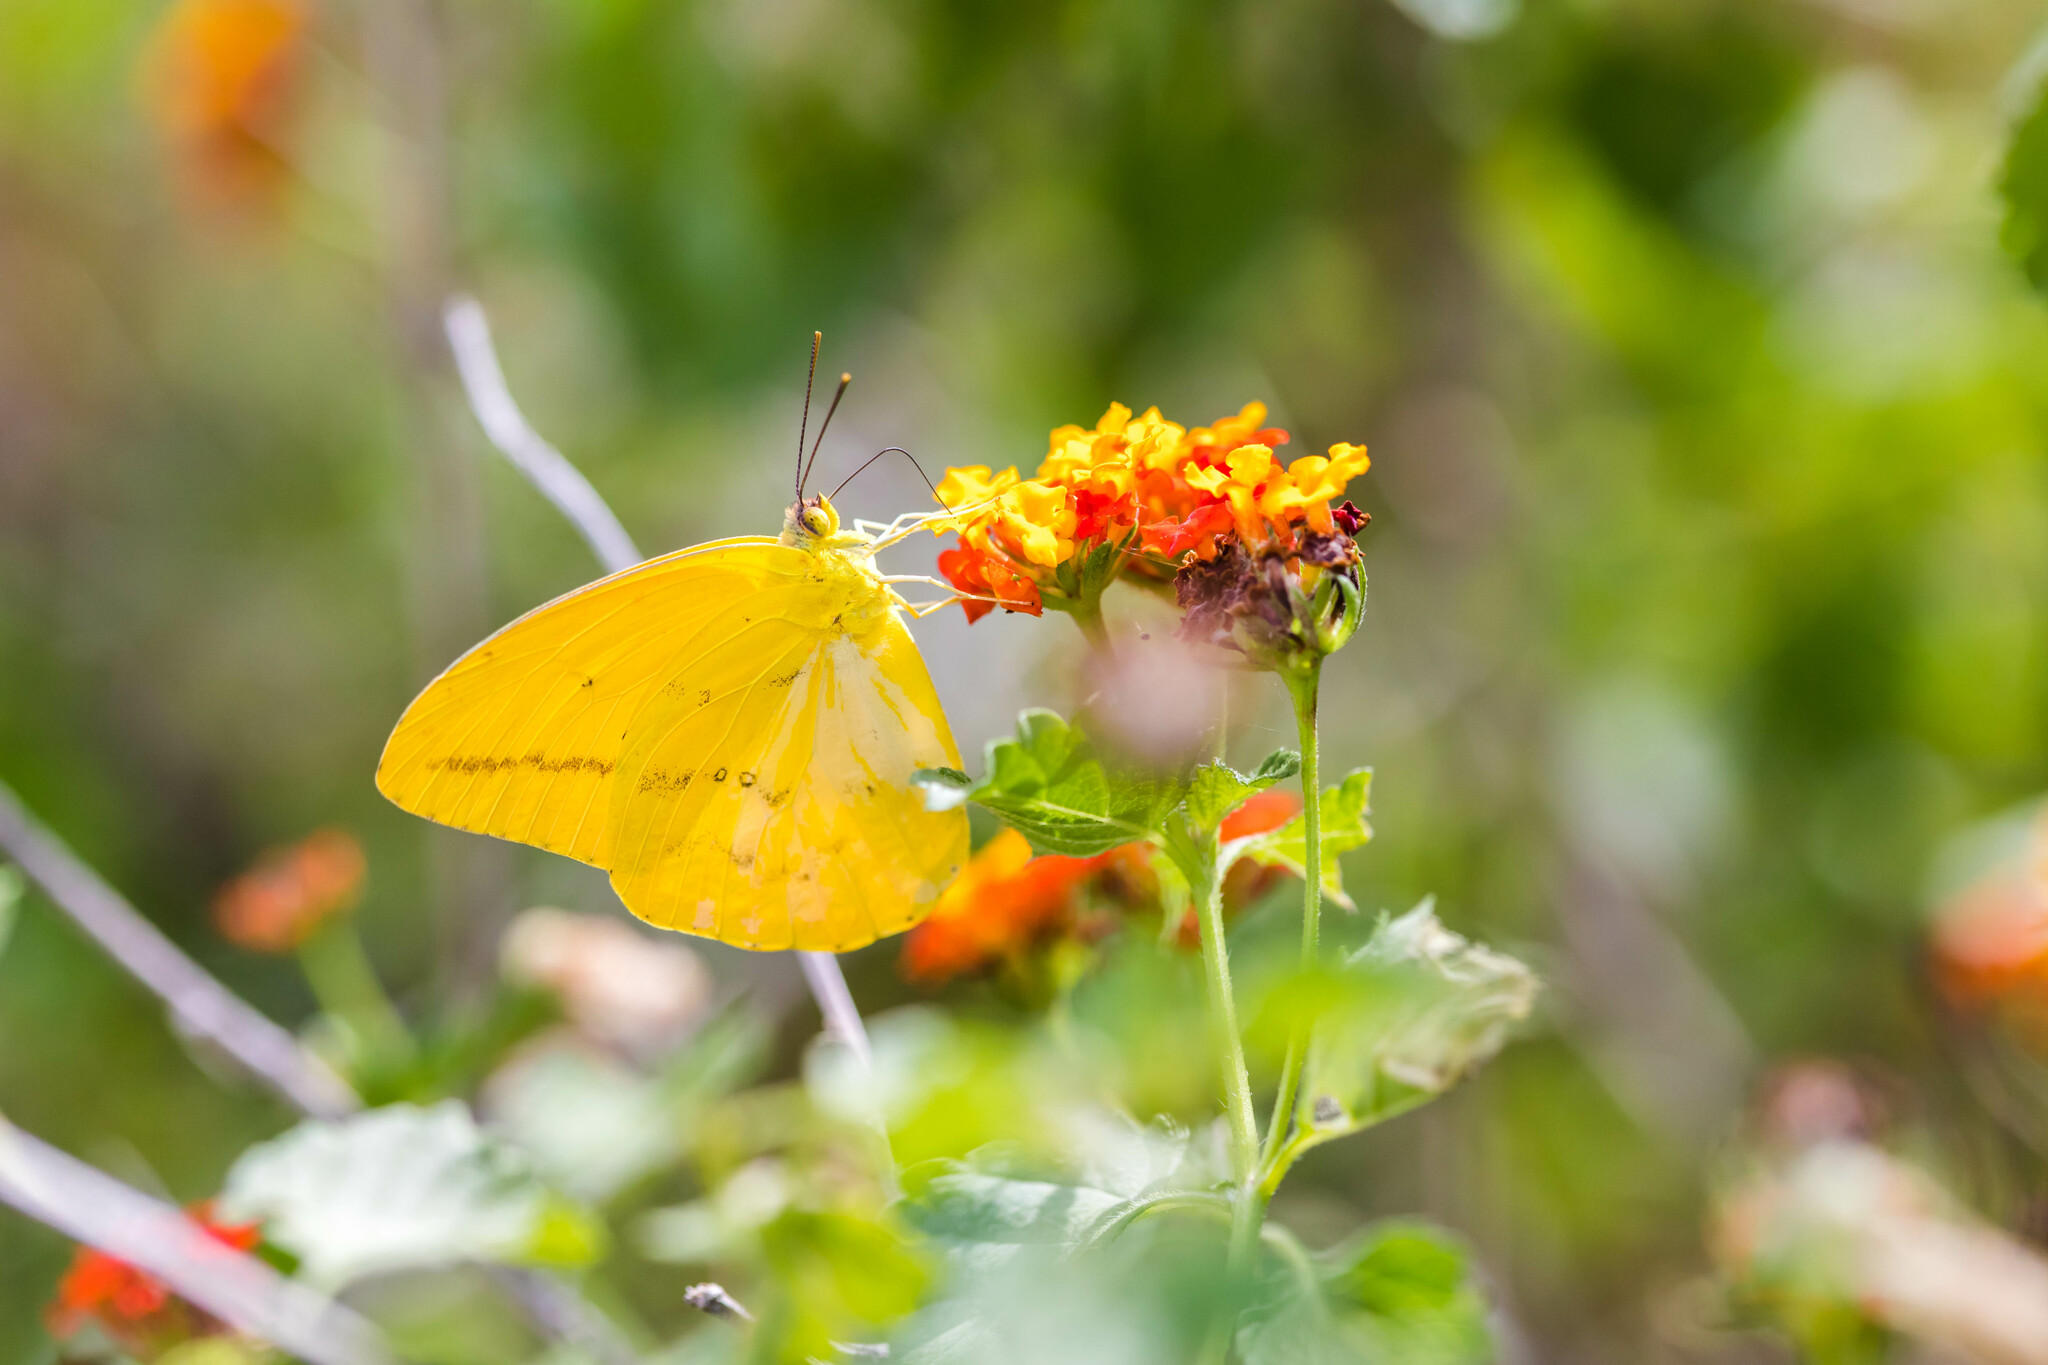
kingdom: Animalia
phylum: Arthropoda
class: Insecta
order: Lepidoptera
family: Pieridae
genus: Phoebis
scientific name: Phoebis agarithe
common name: Large orange sulphur
